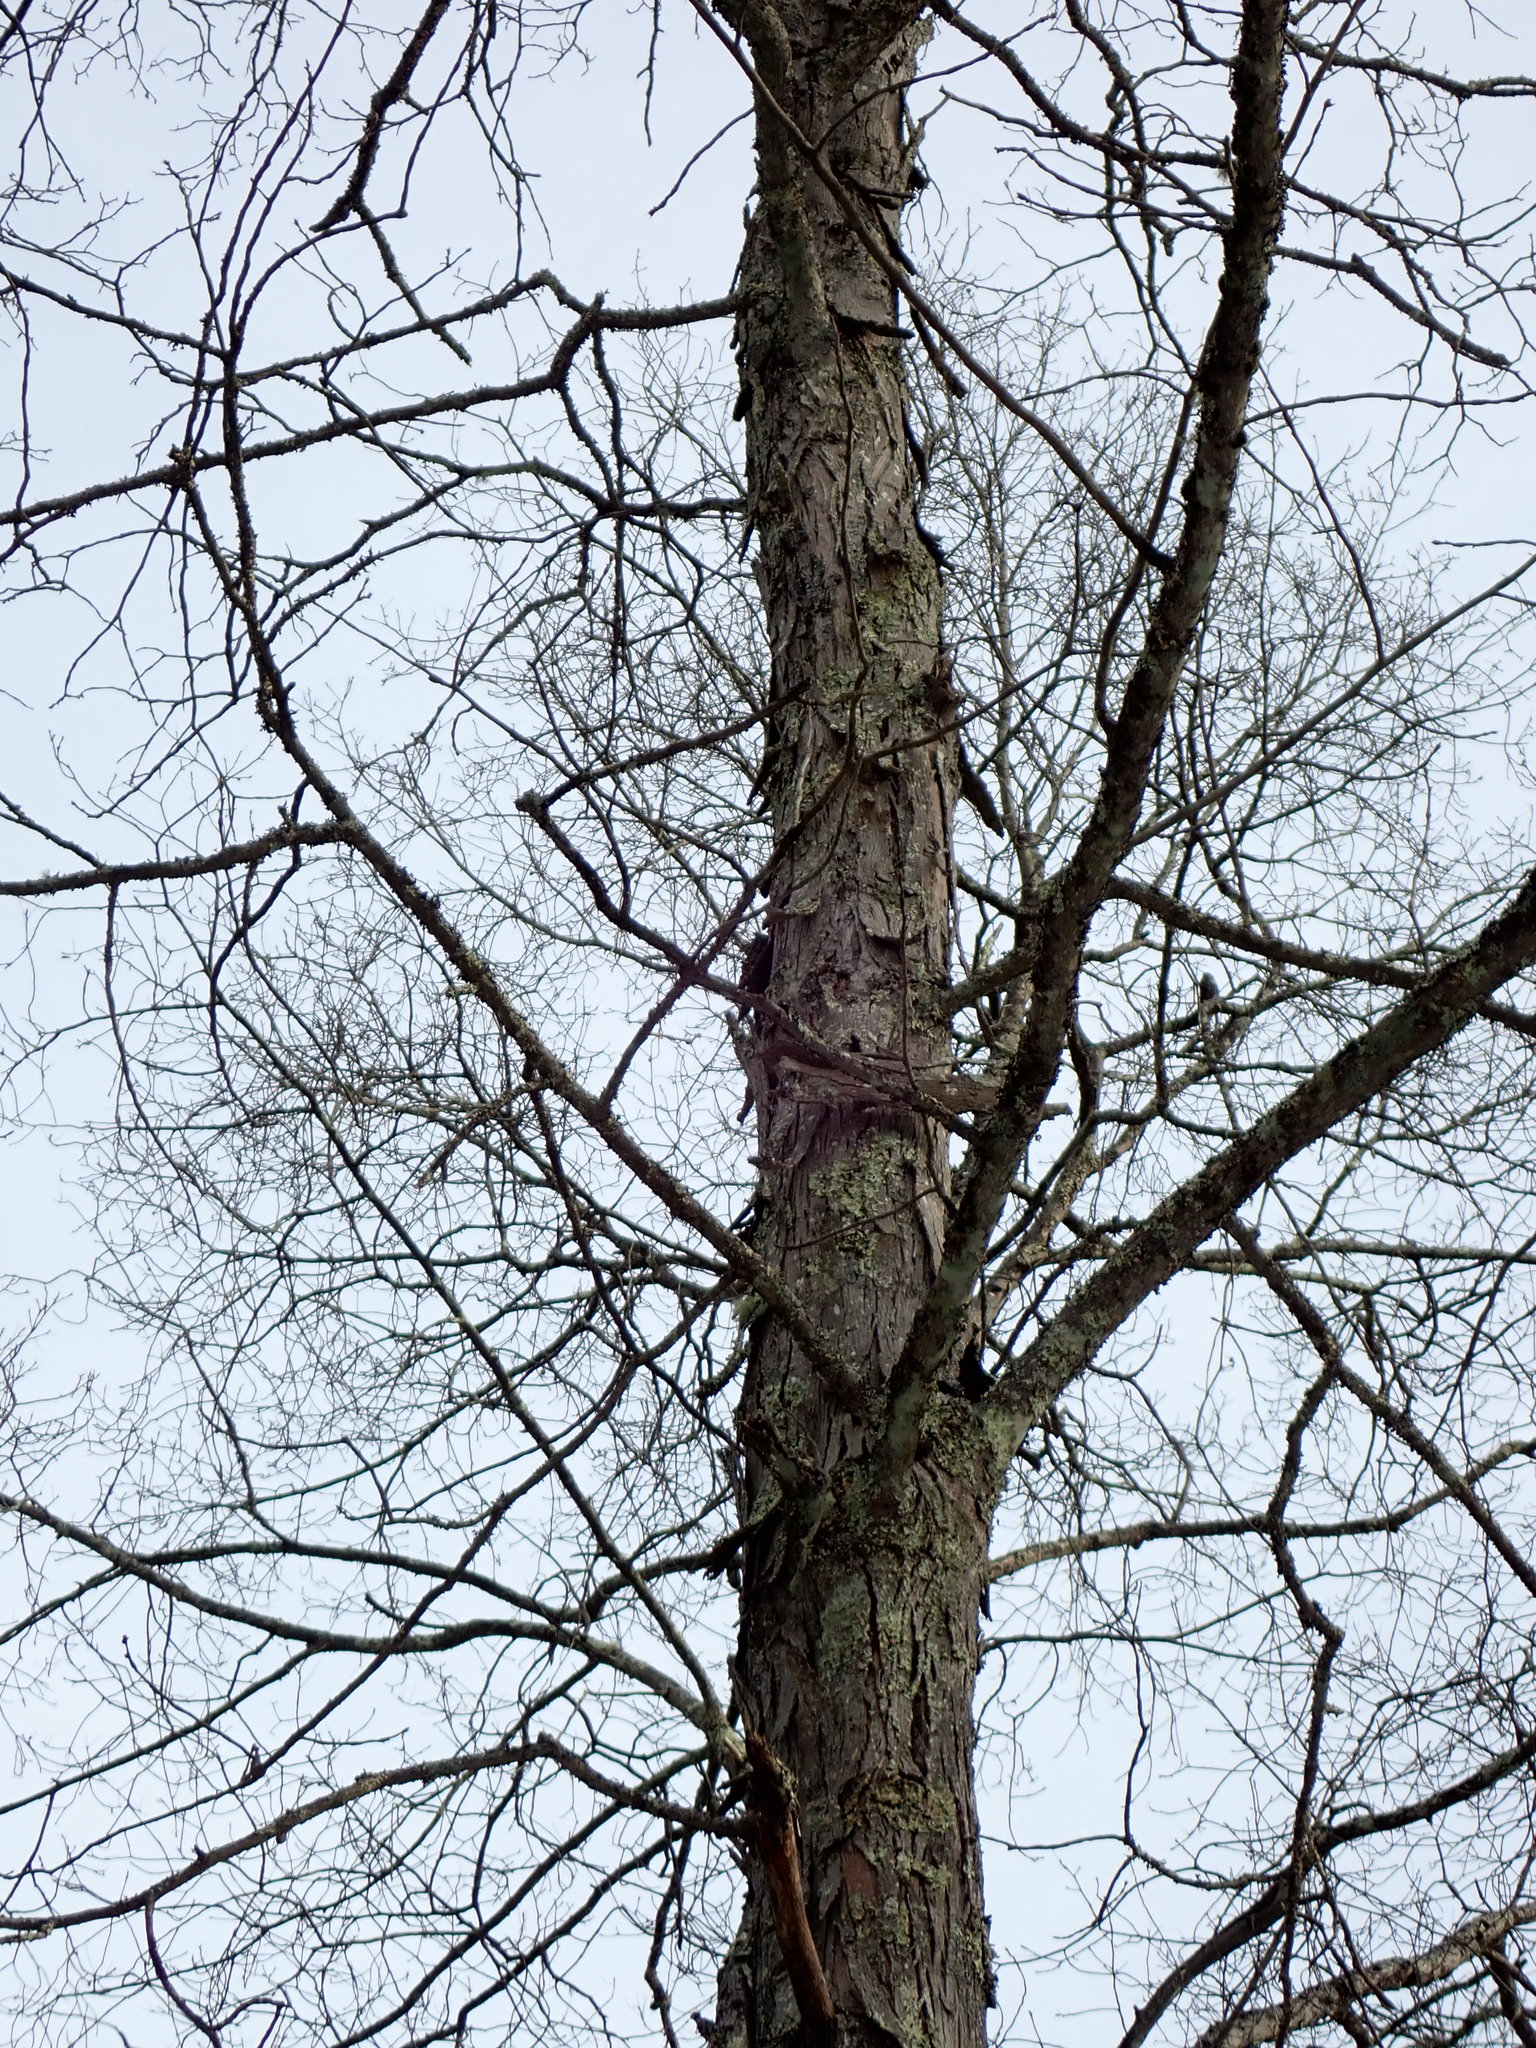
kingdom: Plantae
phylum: Tracheophyta
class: Magnoliopsida
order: Fagales
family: Juglandaceae
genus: Carya
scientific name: Carya ovata
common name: Shagbark hickory
